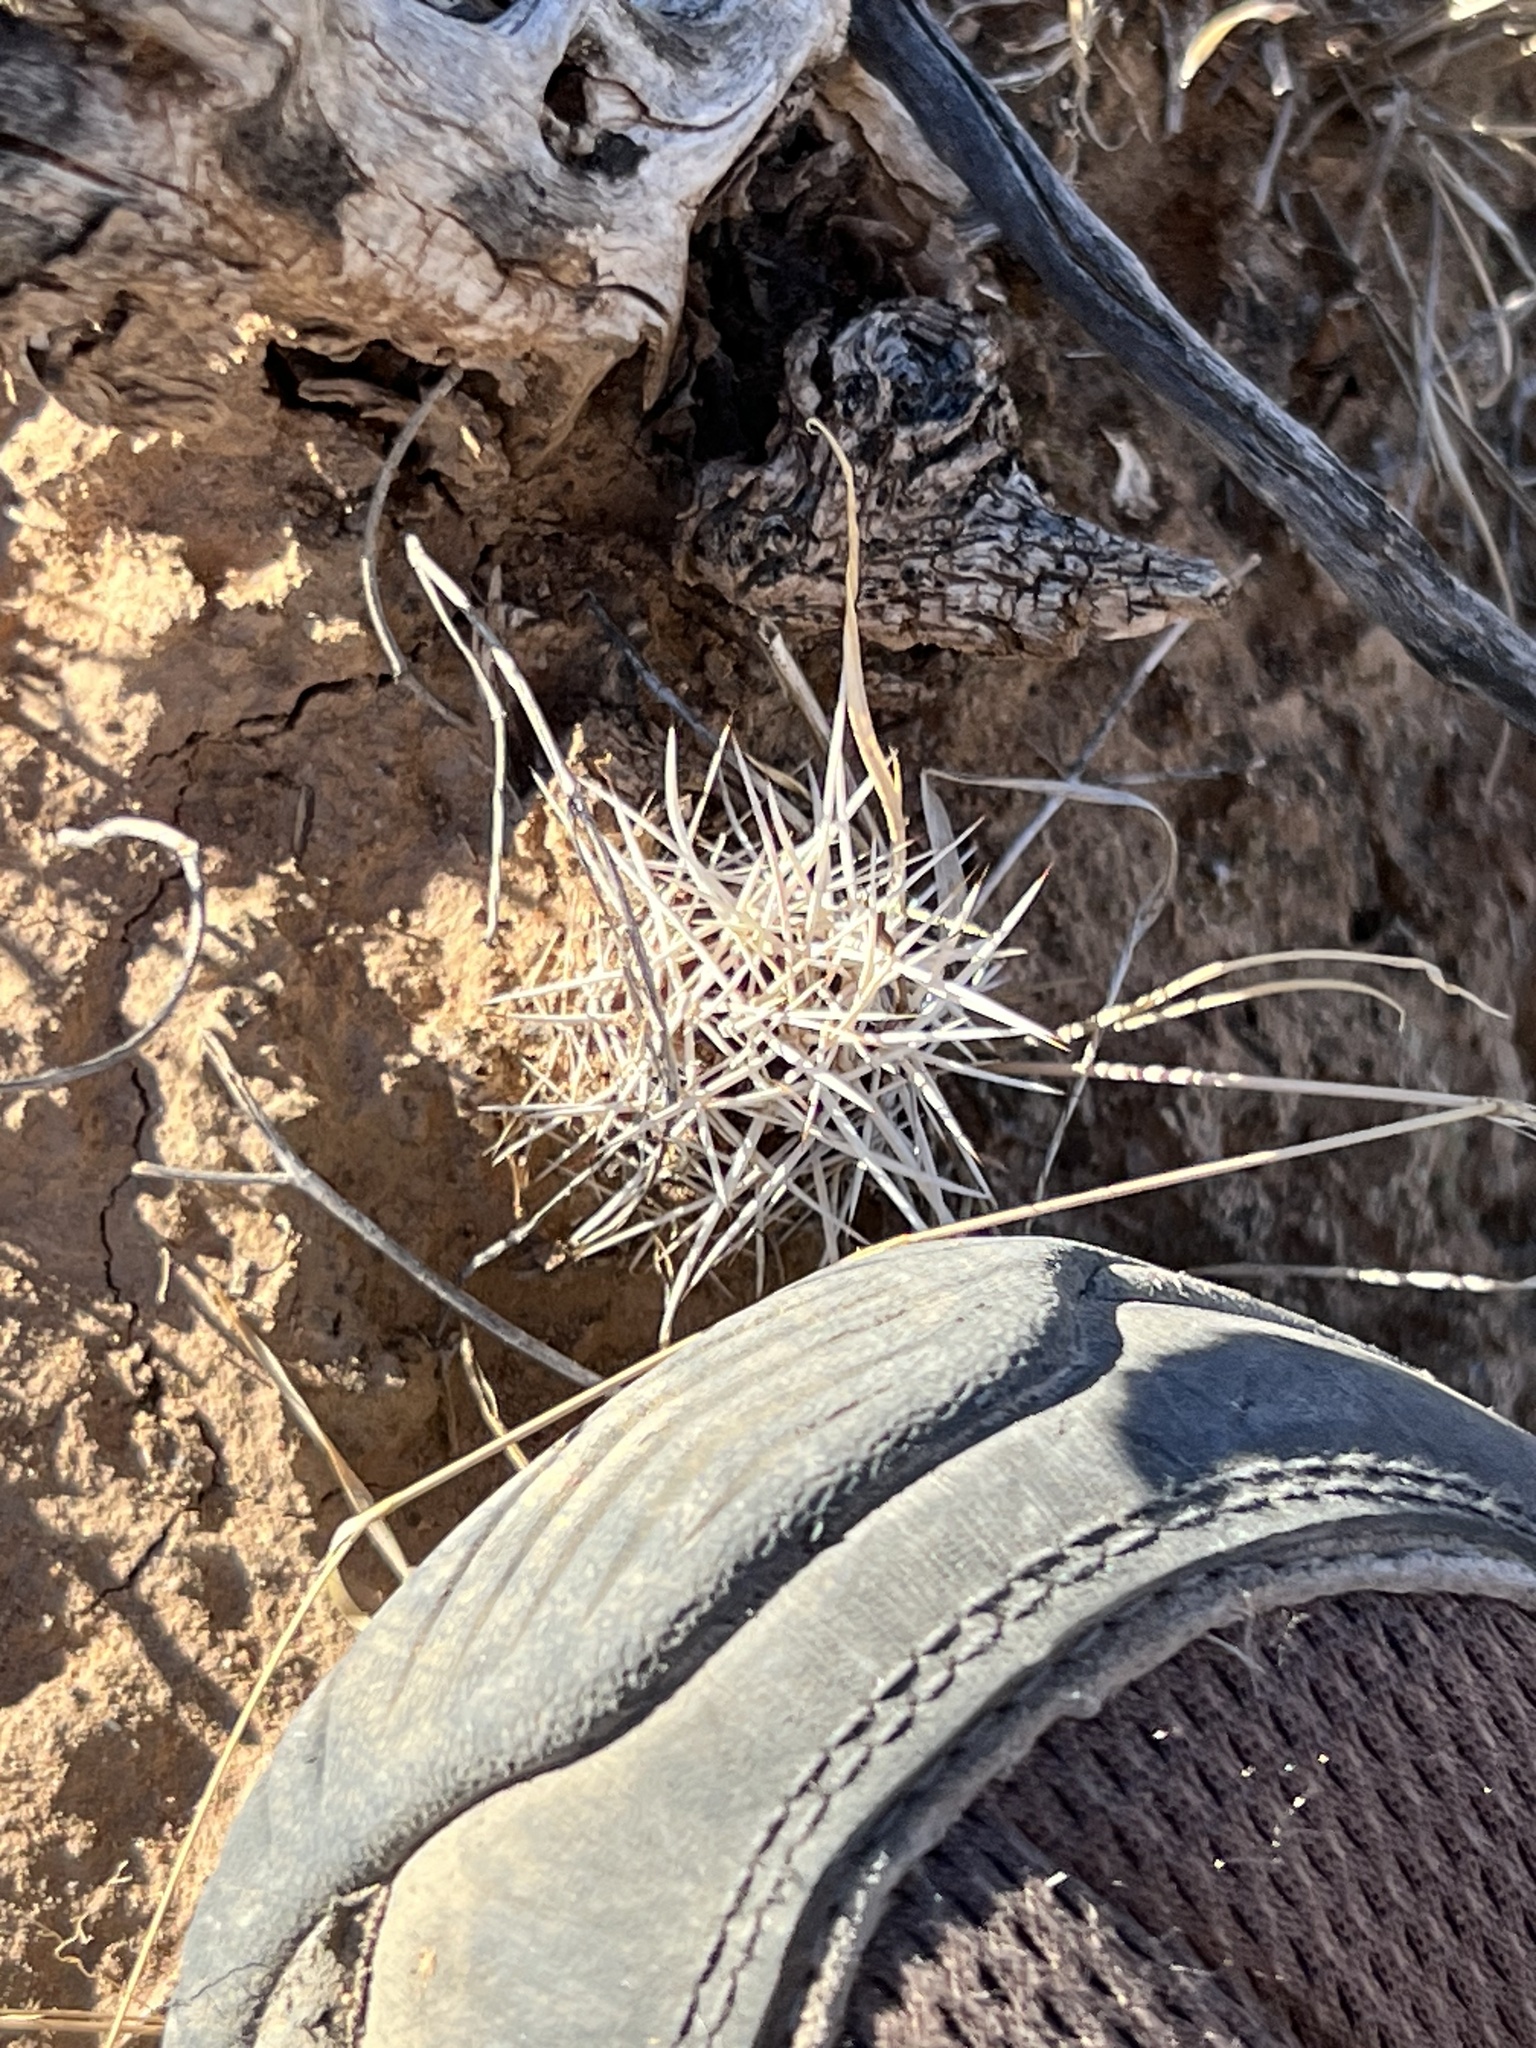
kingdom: Plantae
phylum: Tracheophyta
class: Magnoliopsida
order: Caryophyllales
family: Cactaceae
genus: Echinocereus
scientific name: Echinocereus fendleri
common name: Fendler's hedgehog cactus
